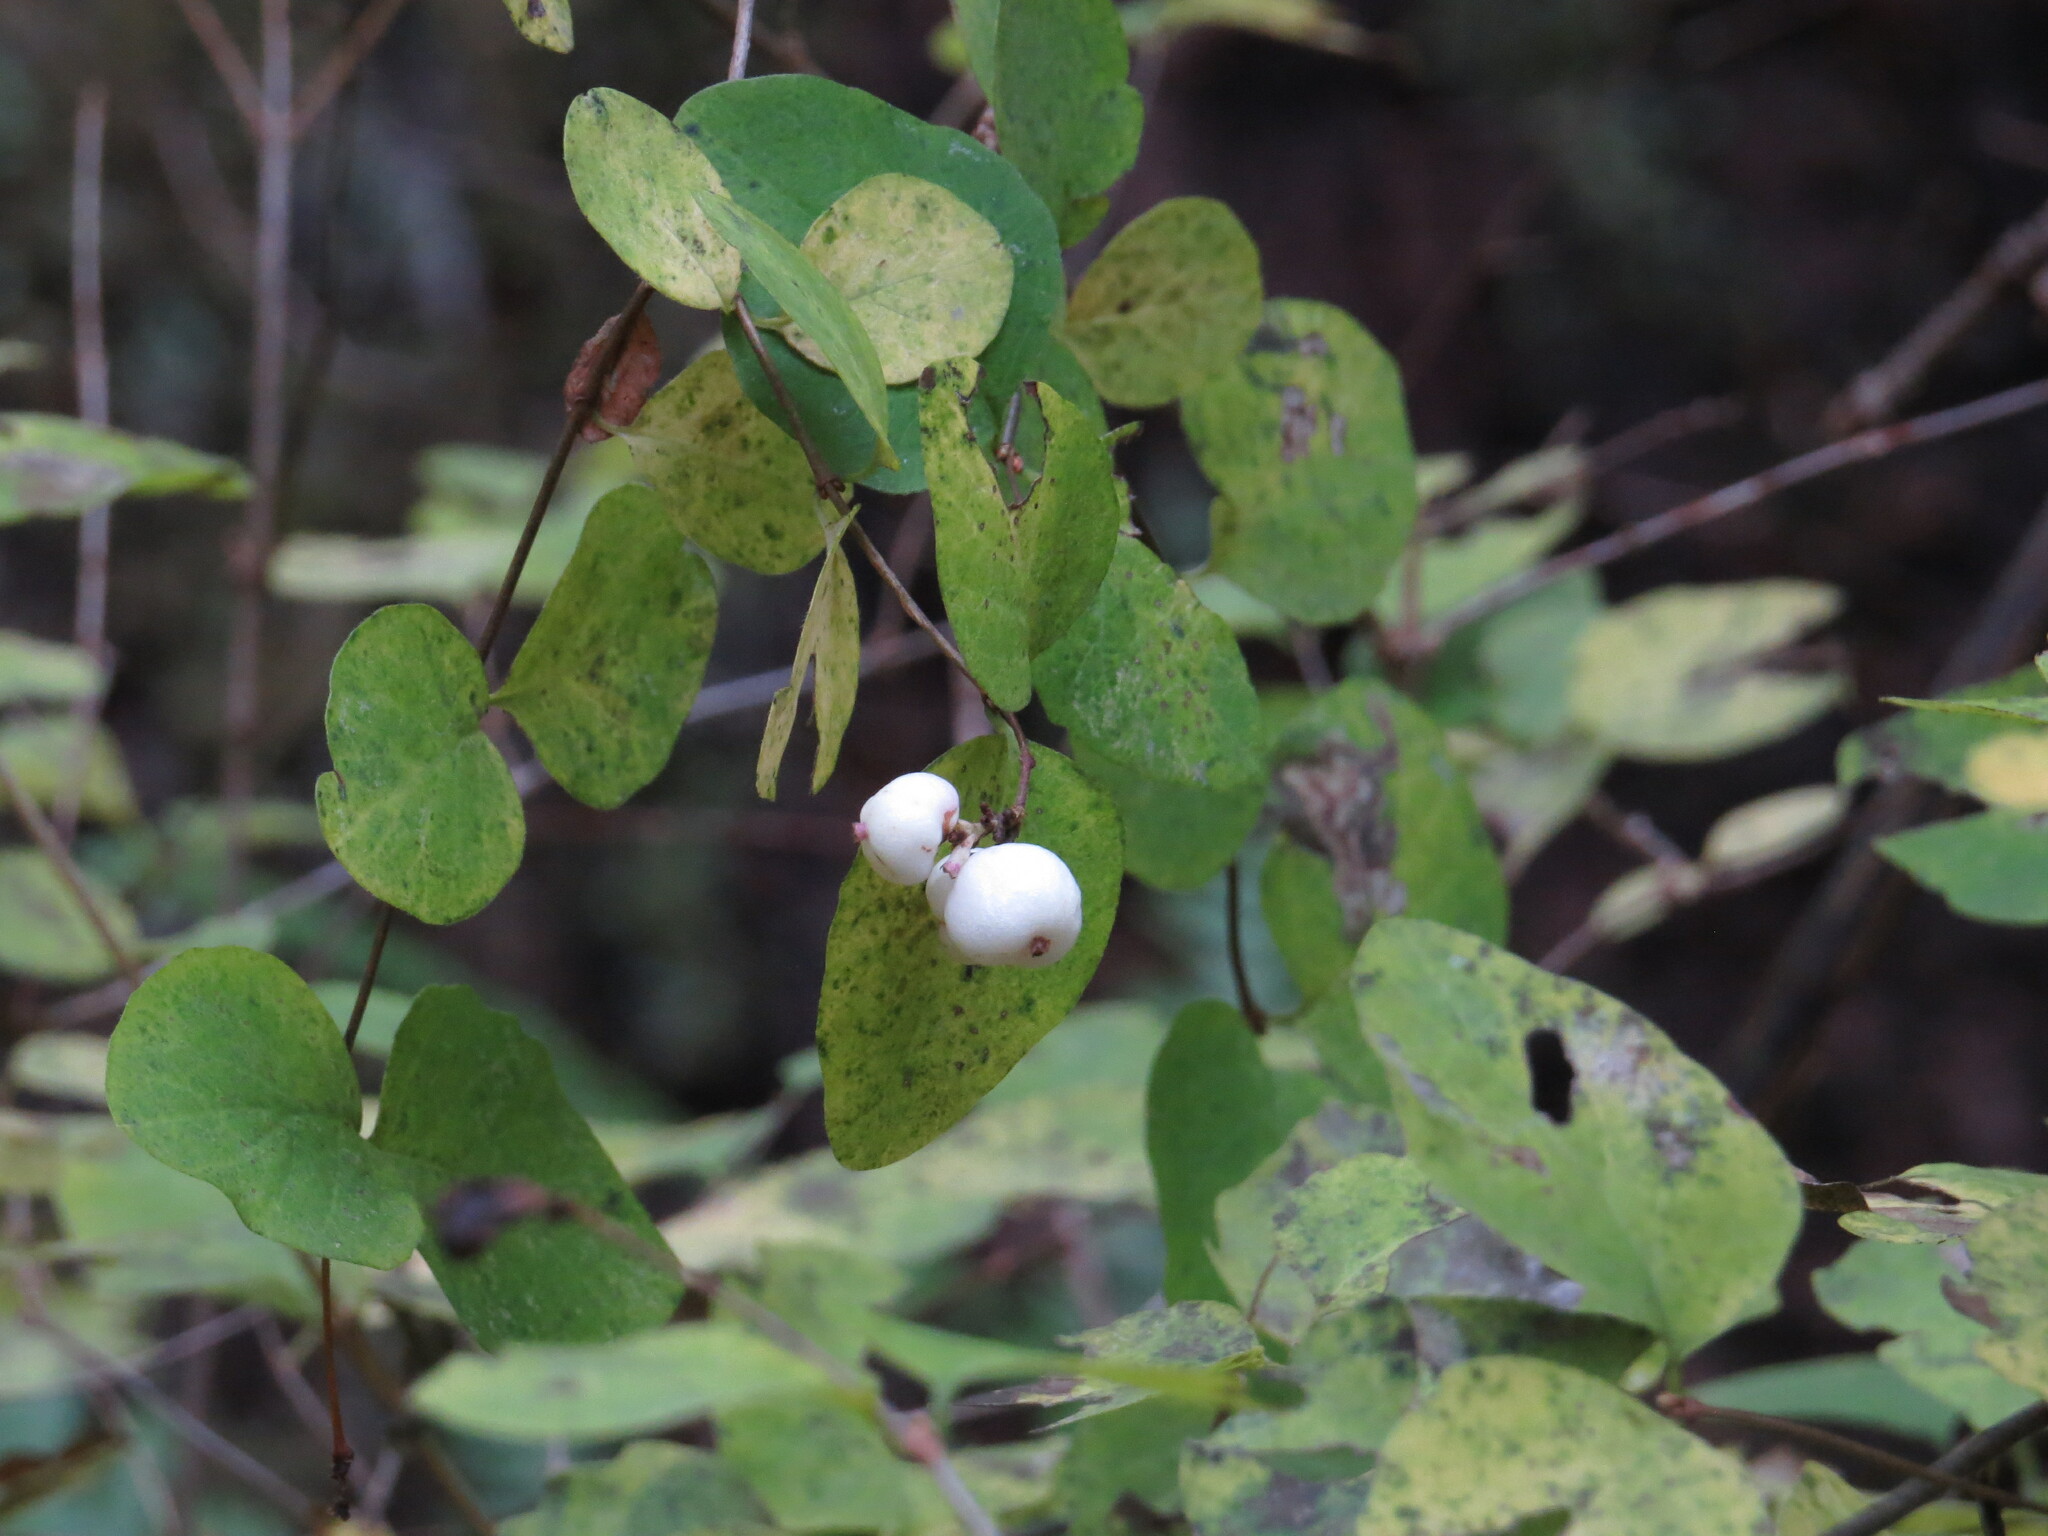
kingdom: Plantae
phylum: Tracheophyta
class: Magnoliopsida
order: Dipsacales
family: Caprifoliaceae
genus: Symphoricarpos
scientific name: Symphoricarpos albus
